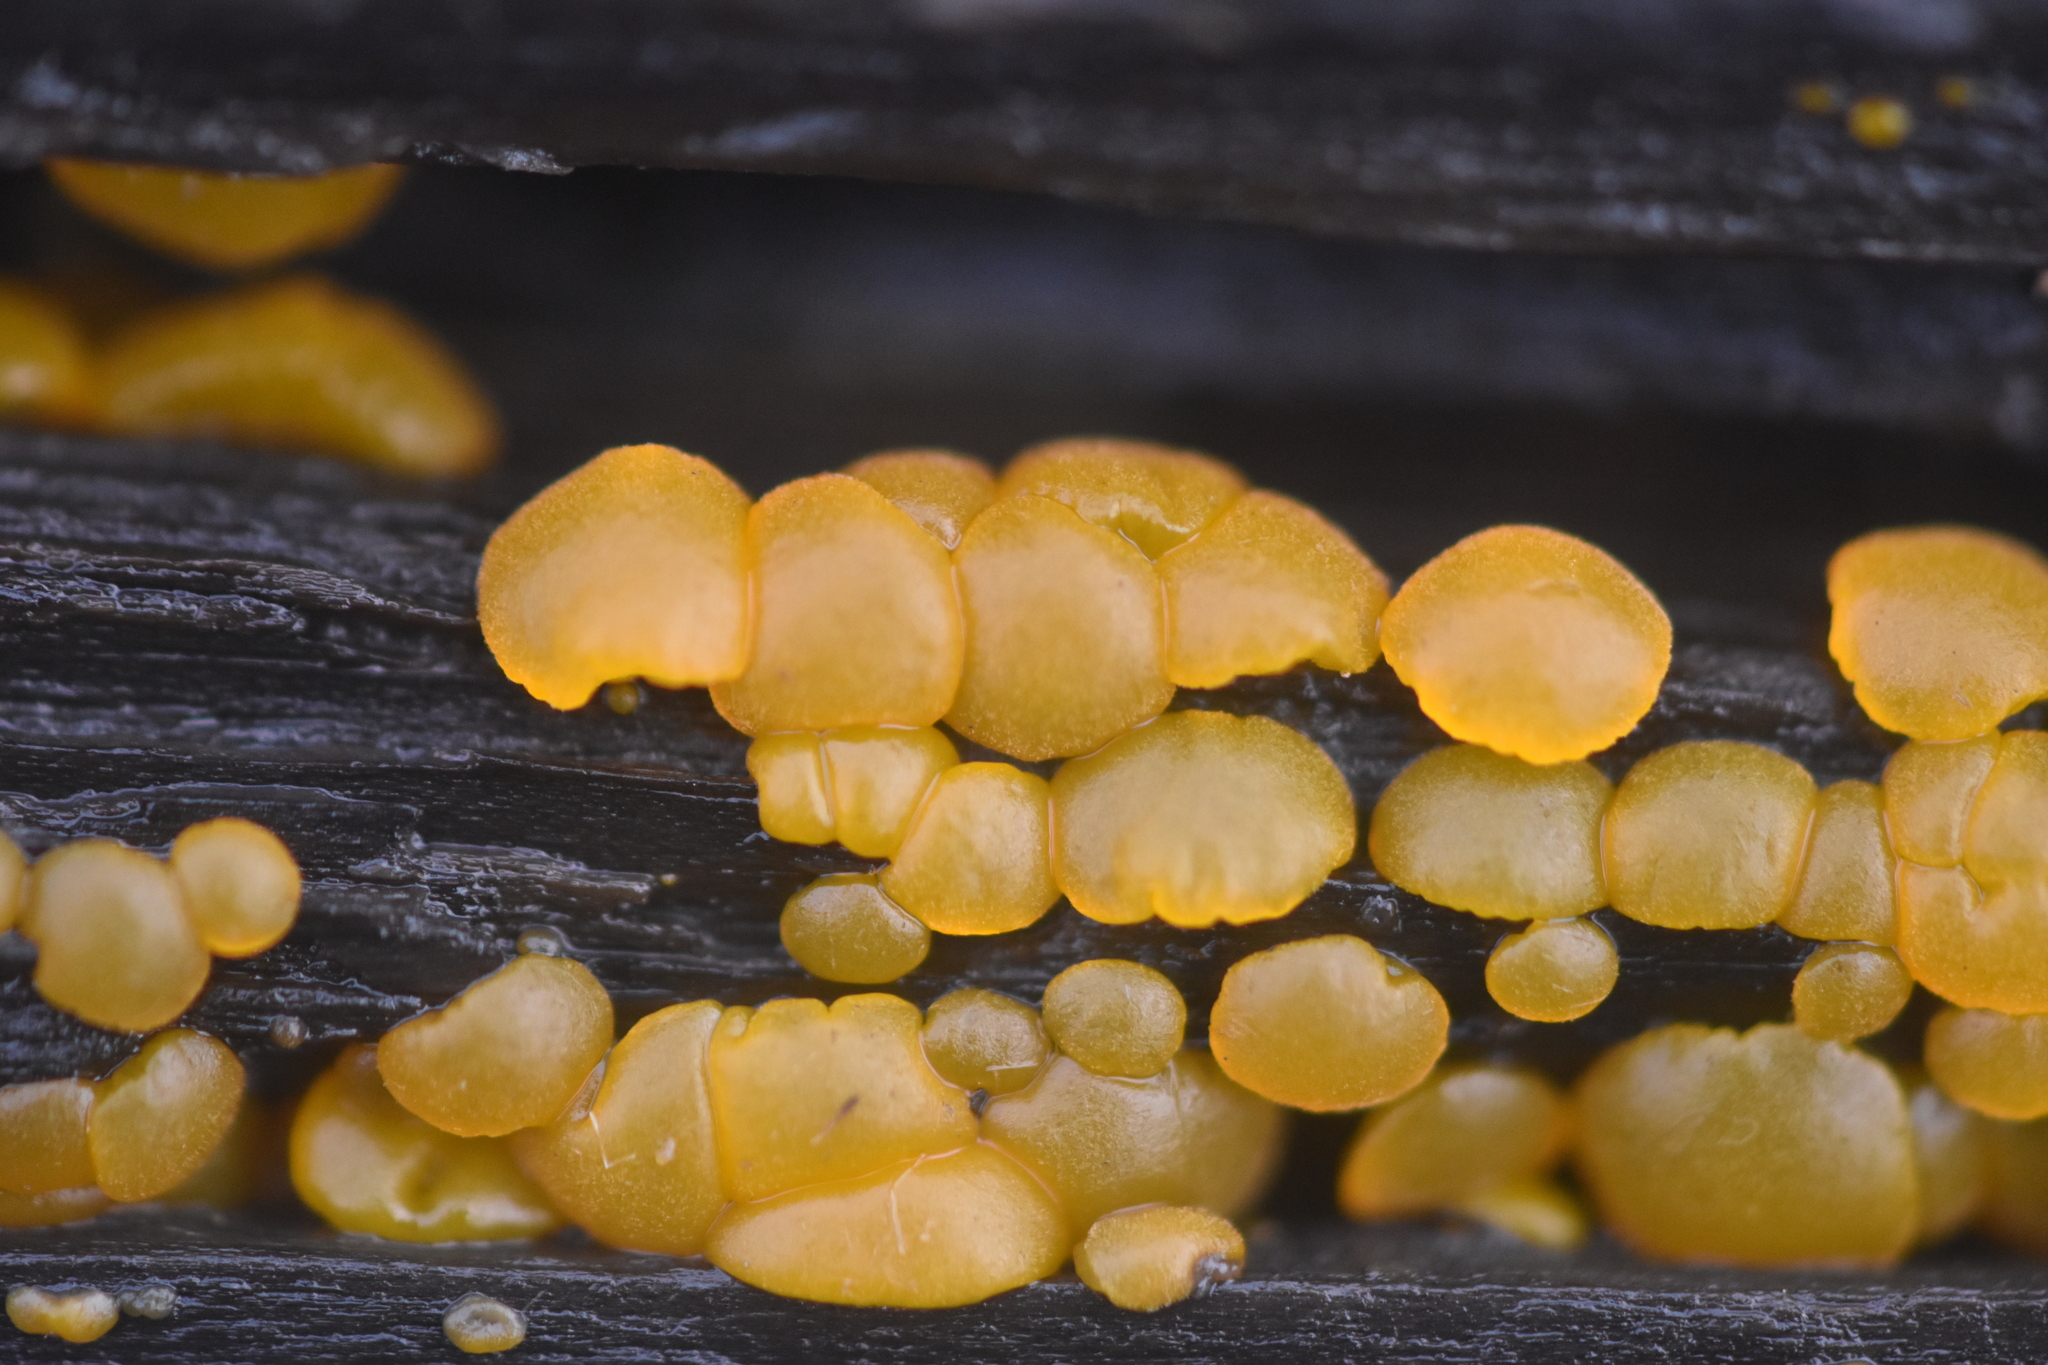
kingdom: Fungi
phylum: Basidiomycota
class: Dacrymycetes
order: Dacrymycetales
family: Dacrymycetaceae
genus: Dacrymyces
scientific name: Dacrymyces stillatus
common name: Common jelly spot
